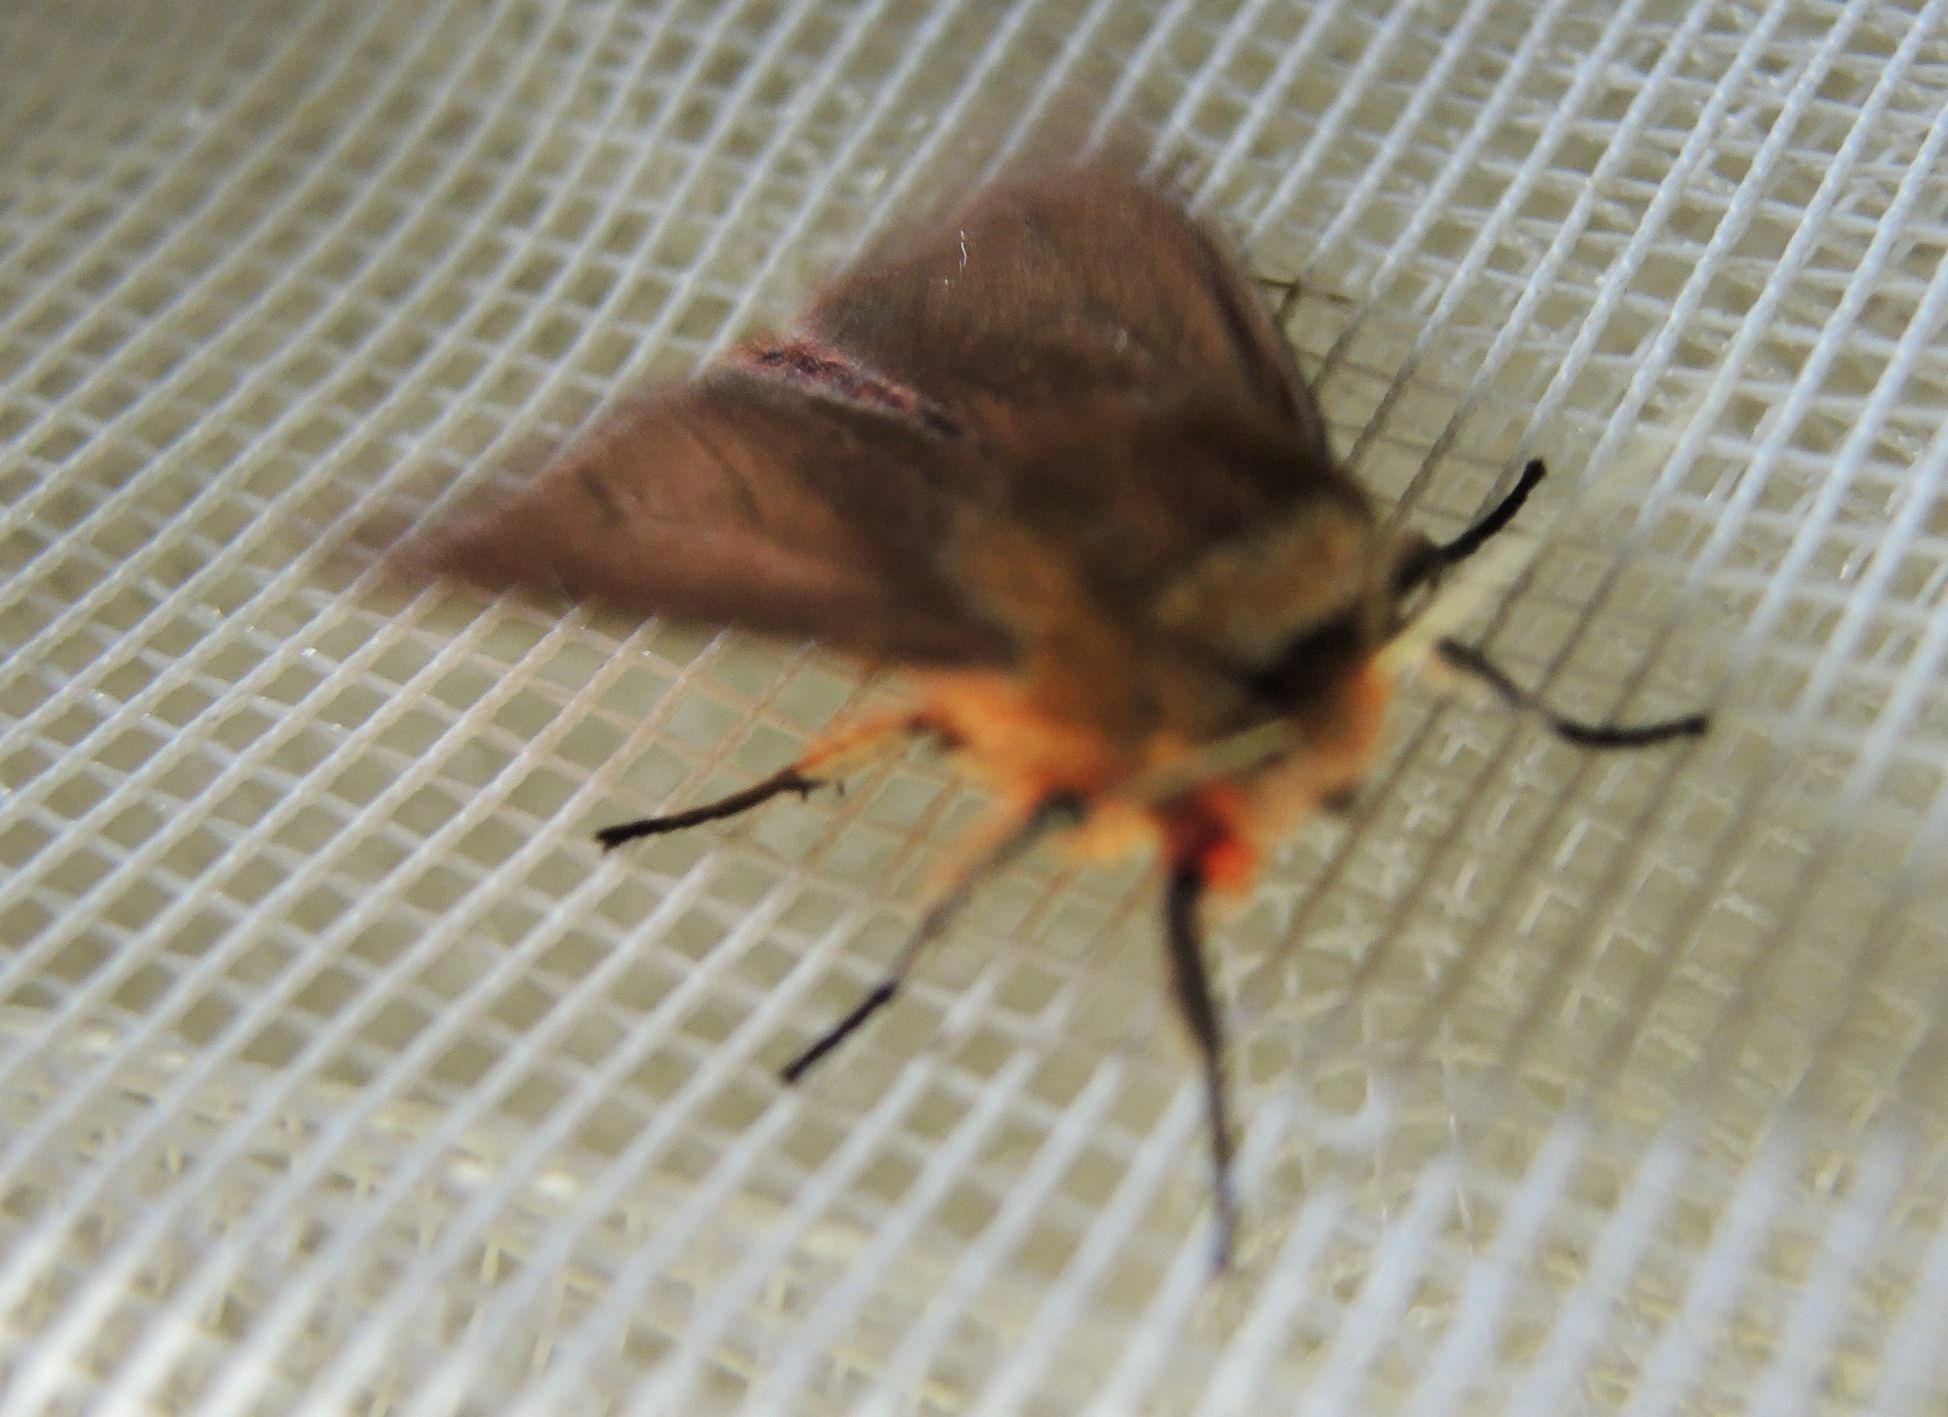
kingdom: Animalia
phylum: Arthropoda
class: Insecta
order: Lepidoptera
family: Erebidae
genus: Phragmatobia
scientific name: Phragmatobia fuliginosa
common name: Ruby tiger
